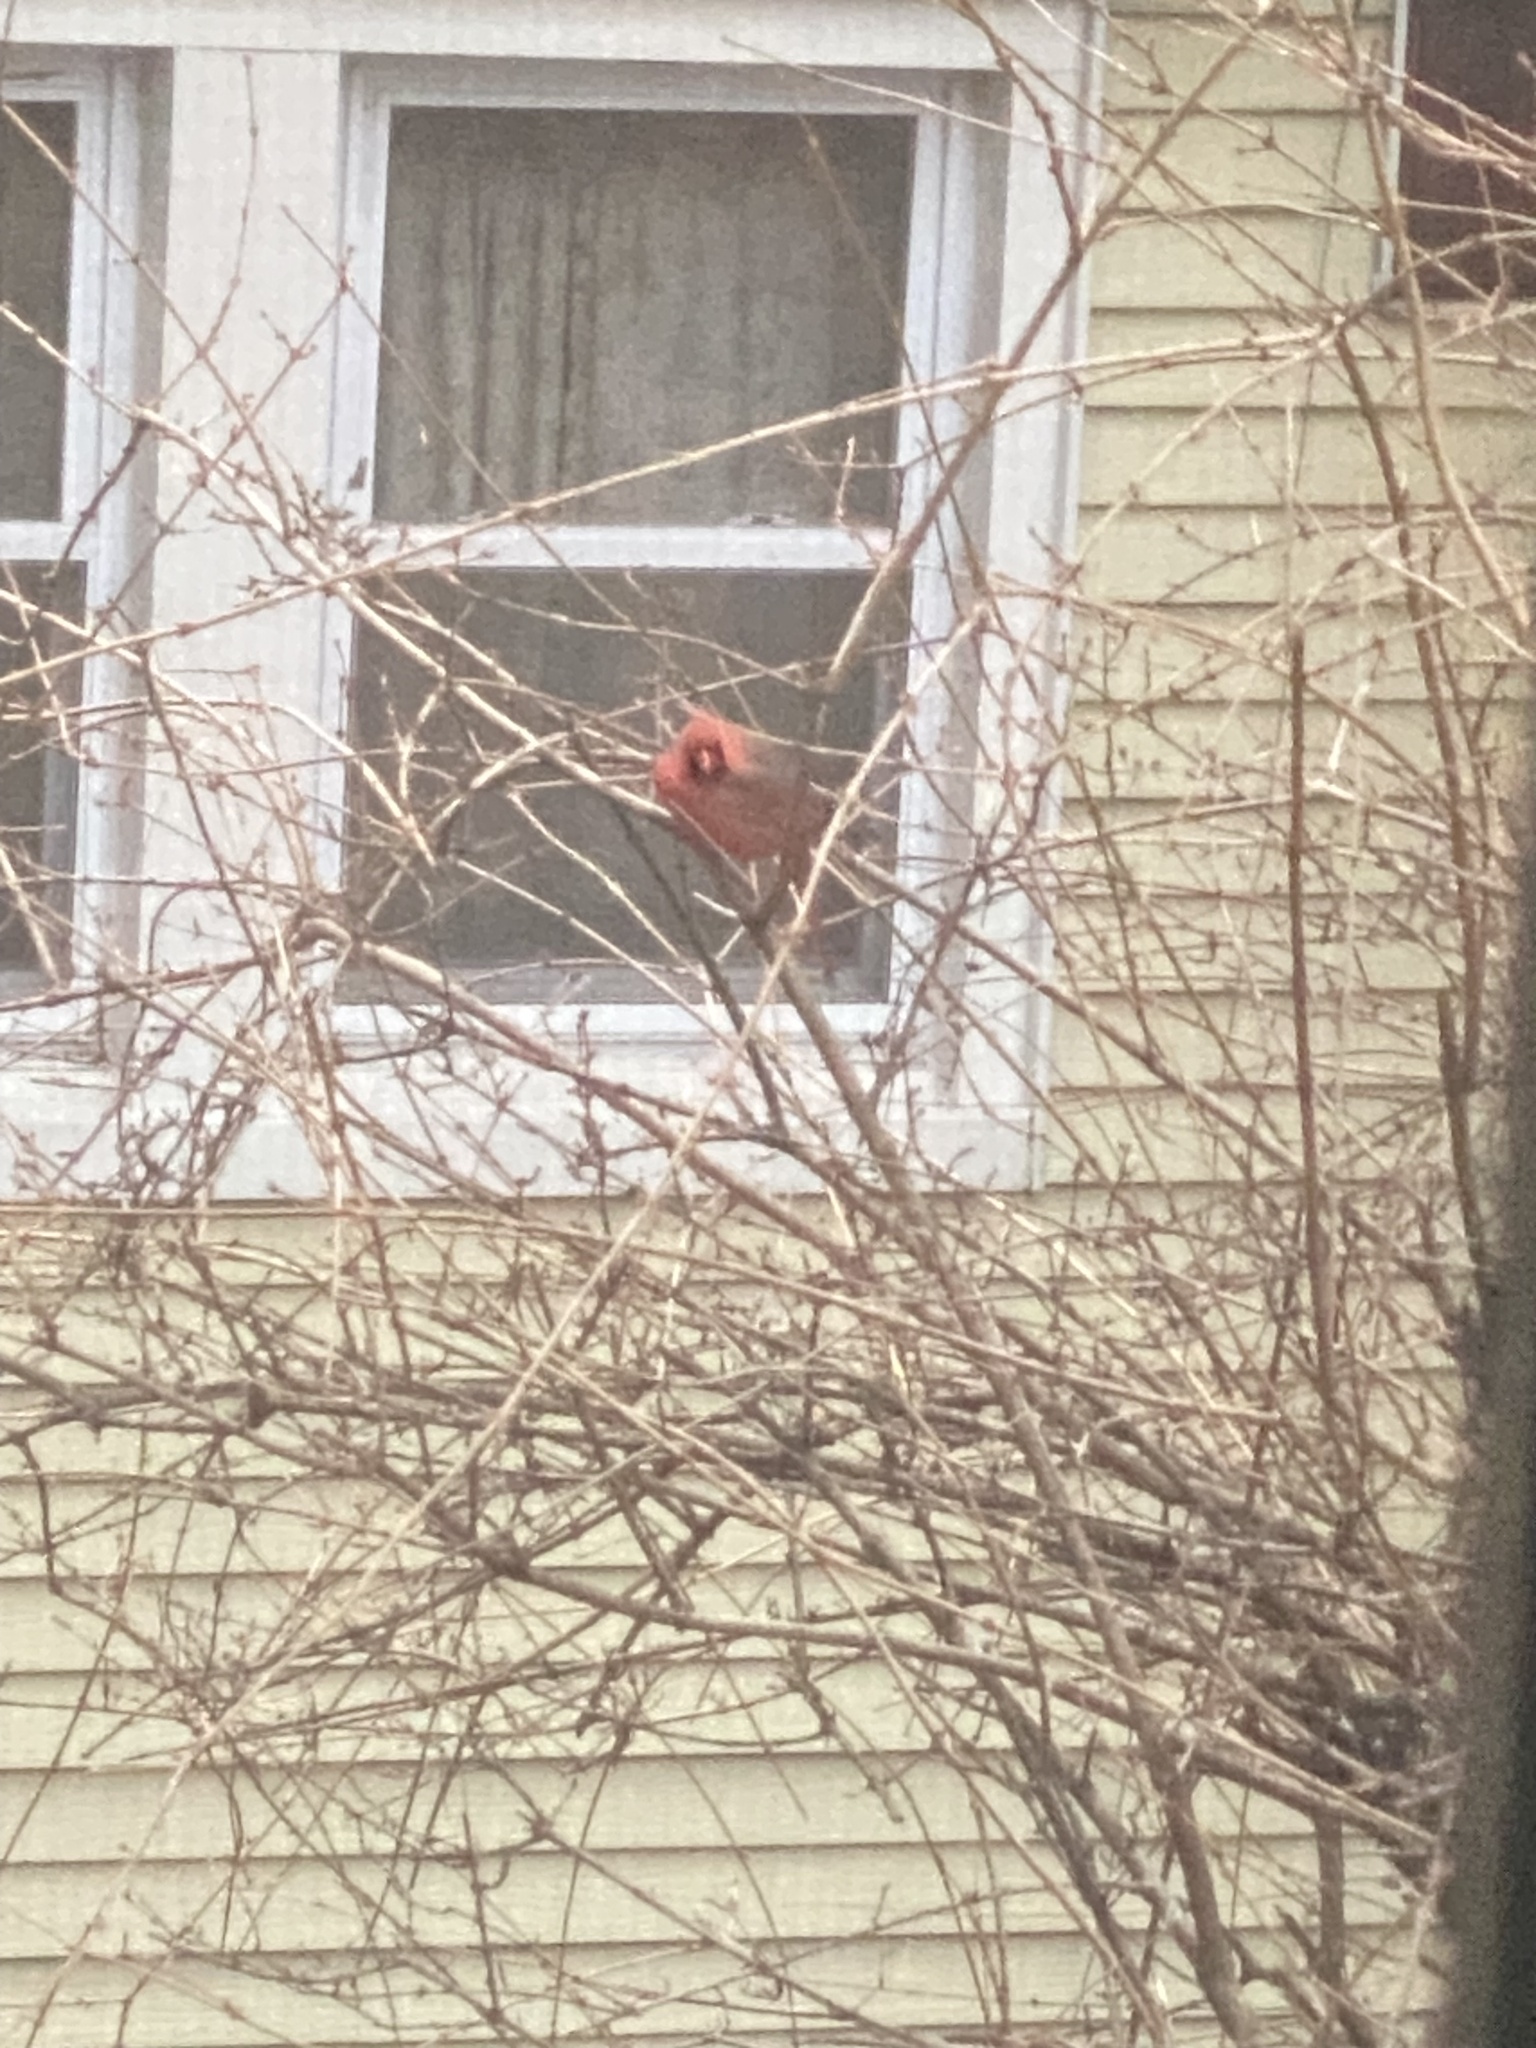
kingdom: Animalia
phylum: Chordata
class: Aves
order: Passeriformes
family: Cardinalidae
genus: Cardinalis
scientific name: Cardinalis cardinalis
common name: Northern cardinal
